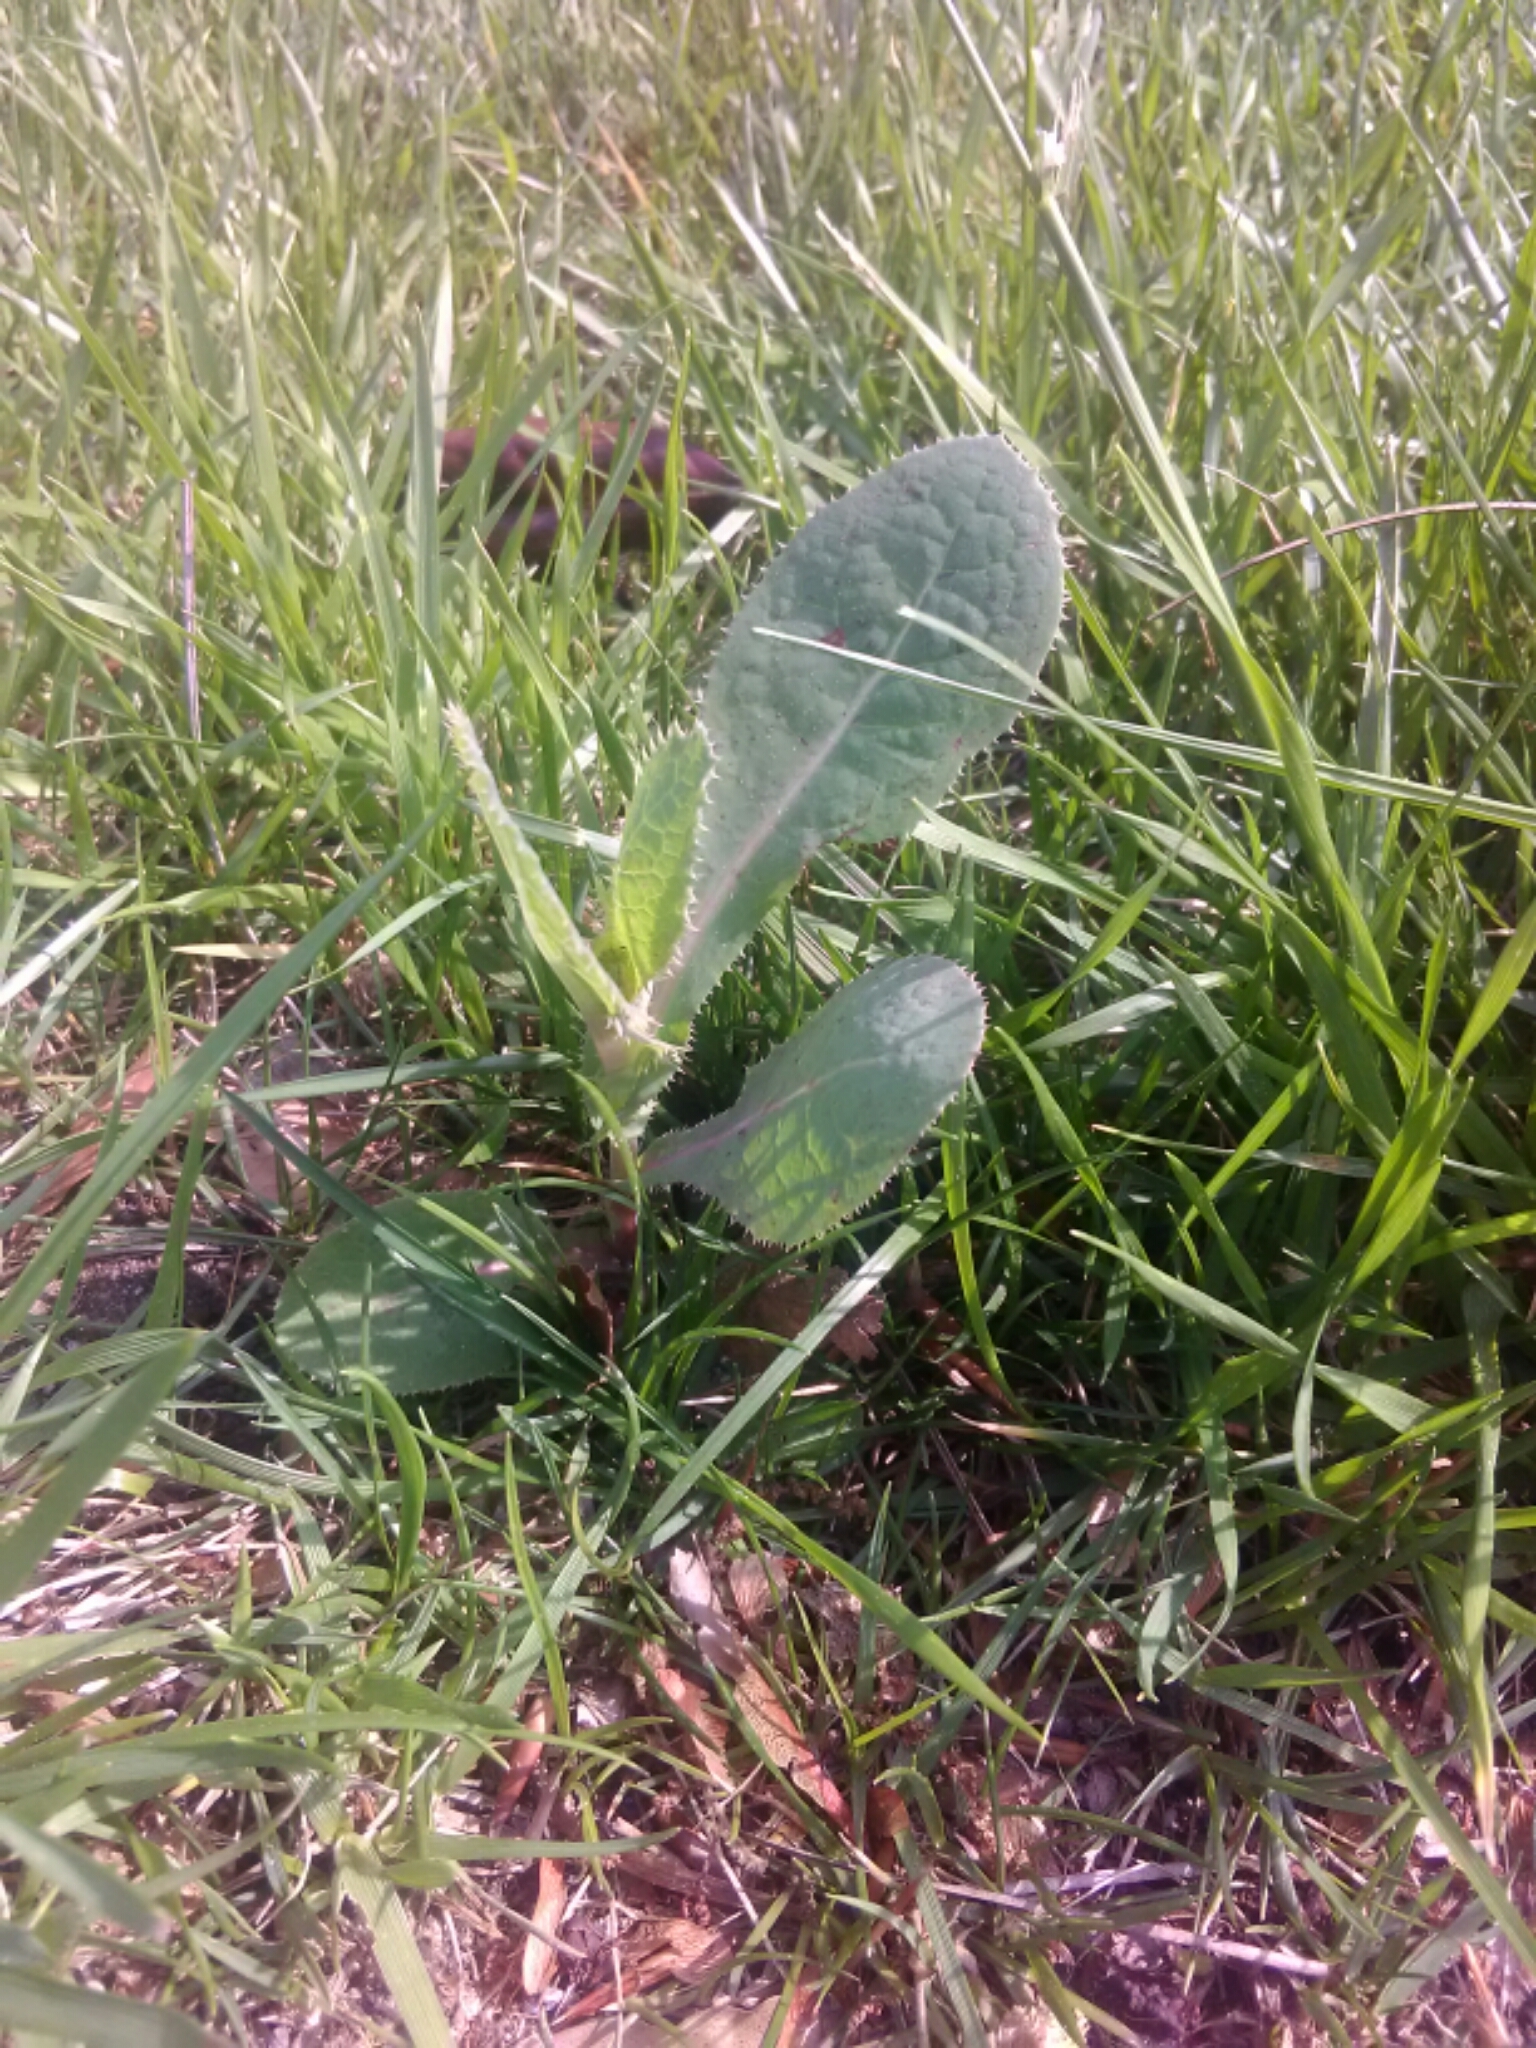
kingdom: Plantae
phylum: Tracheophyta
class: Magnoliopsida
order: Lamiales
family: Scrophulariaceae
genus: Verbascum
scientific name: Verbascum thapsus
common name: Common mullein
